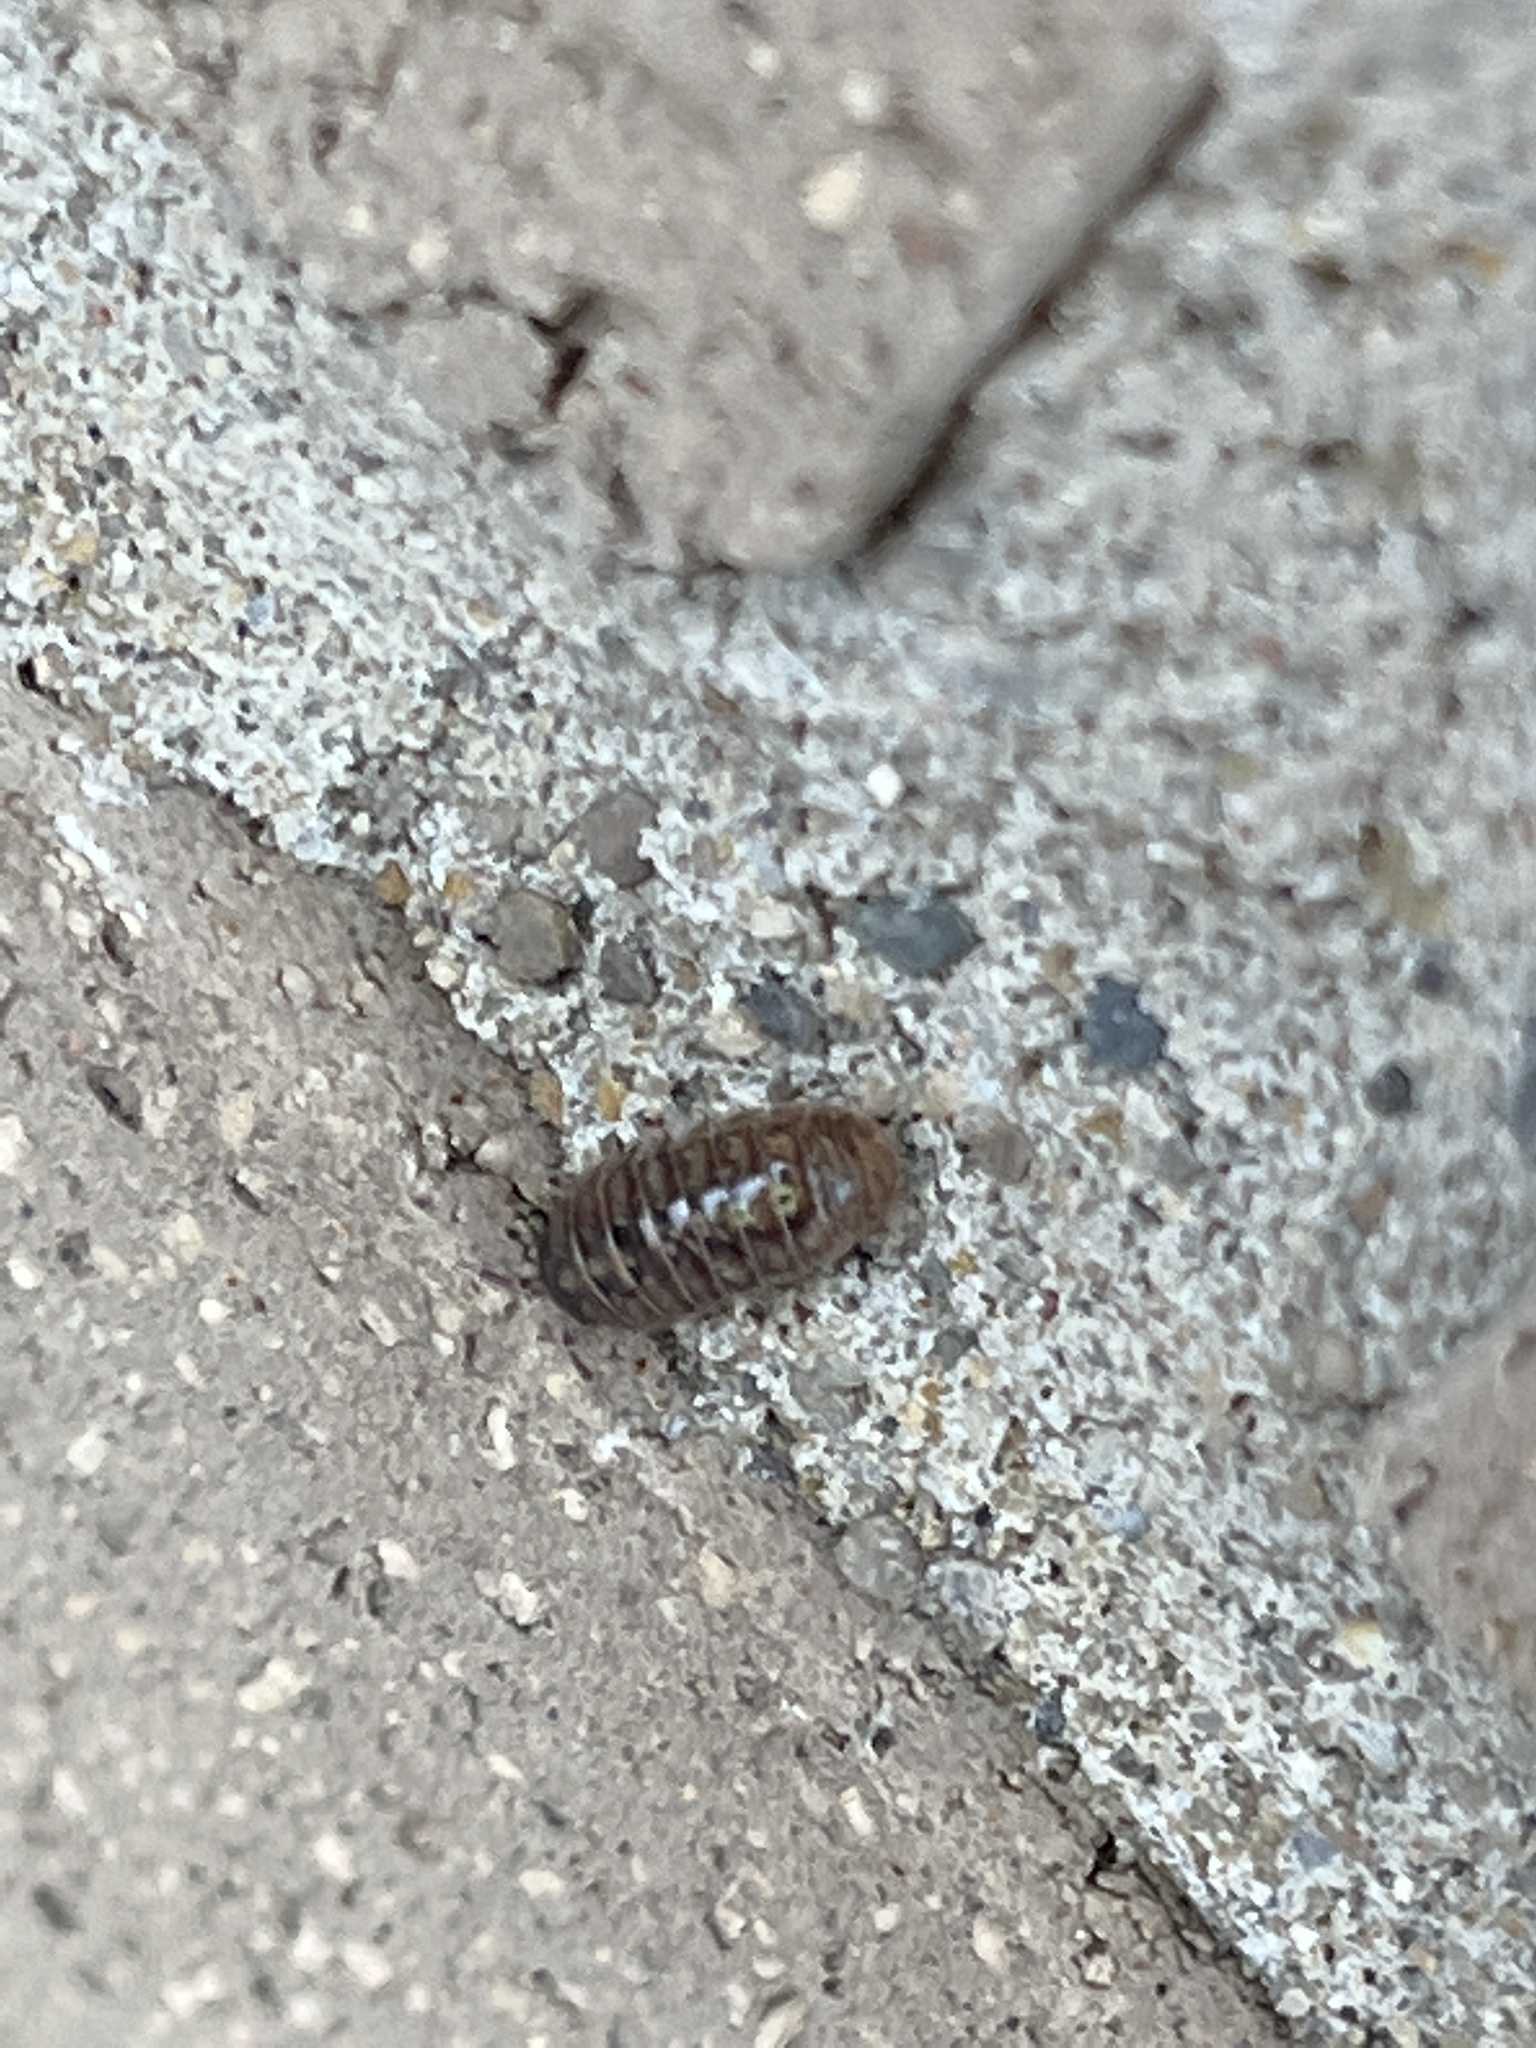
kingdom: Animalia
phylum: Arthropoda
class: Malacostraca
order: Isopoda
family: Armadillidiidae
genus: Armadillidium
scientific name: Armadillidium vulgare
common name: Common pill woodlouse
